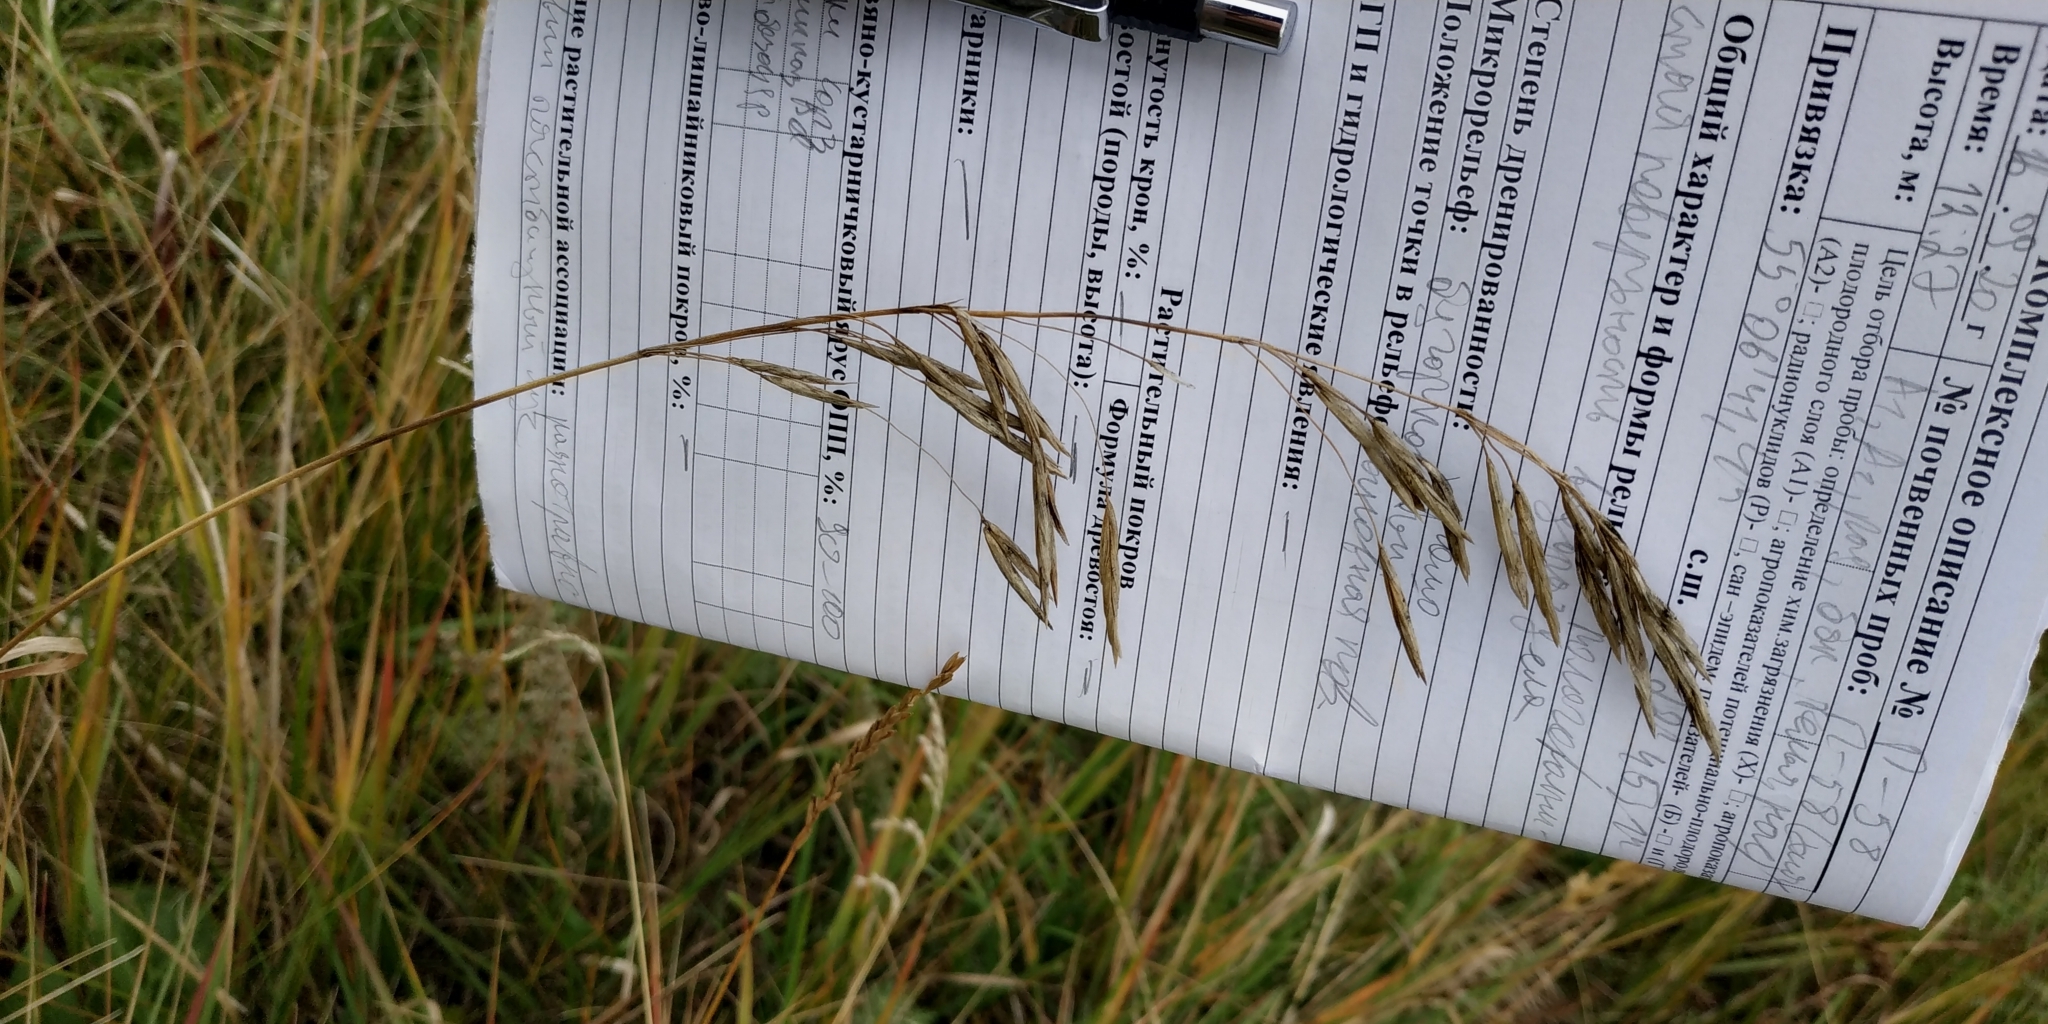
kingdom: Plantae
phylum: Tracheophyta
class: Liliopsida
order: Poales
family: Poaceae
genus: Bromus
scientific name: Bromus inermis
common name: Smooth brome
